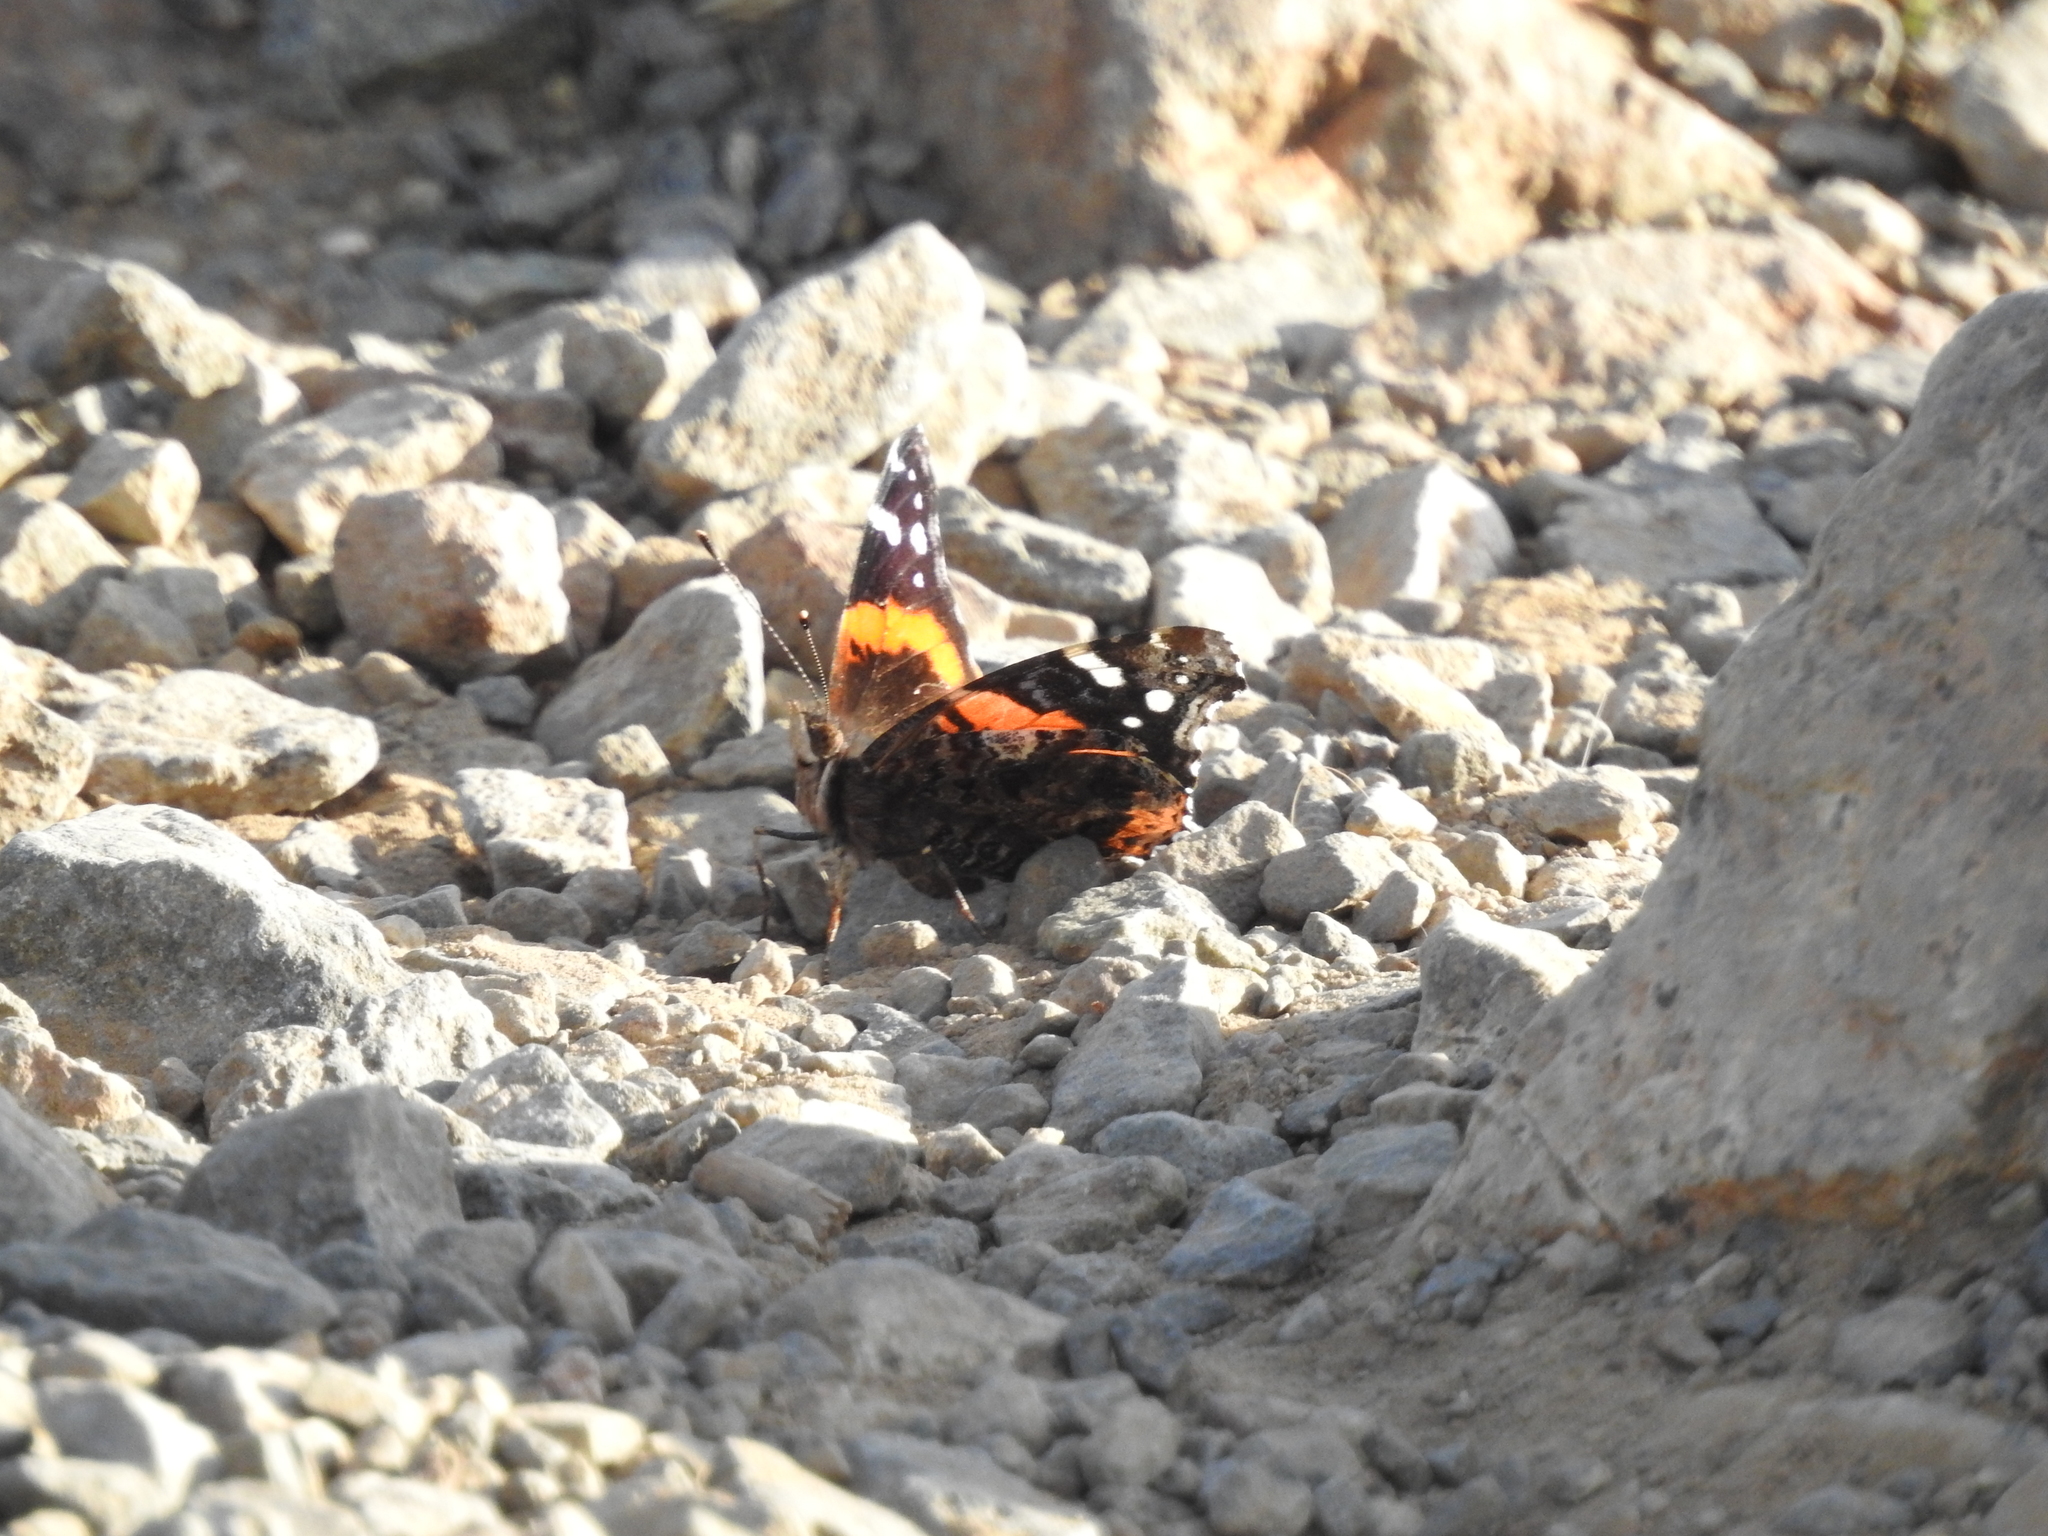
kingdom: Animalia
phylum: Arthropoda
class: Insecta
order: Lepidoptera
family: Nymphalidae
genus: Vanessa
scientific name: Vanessa atalanta
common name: Red admiral
